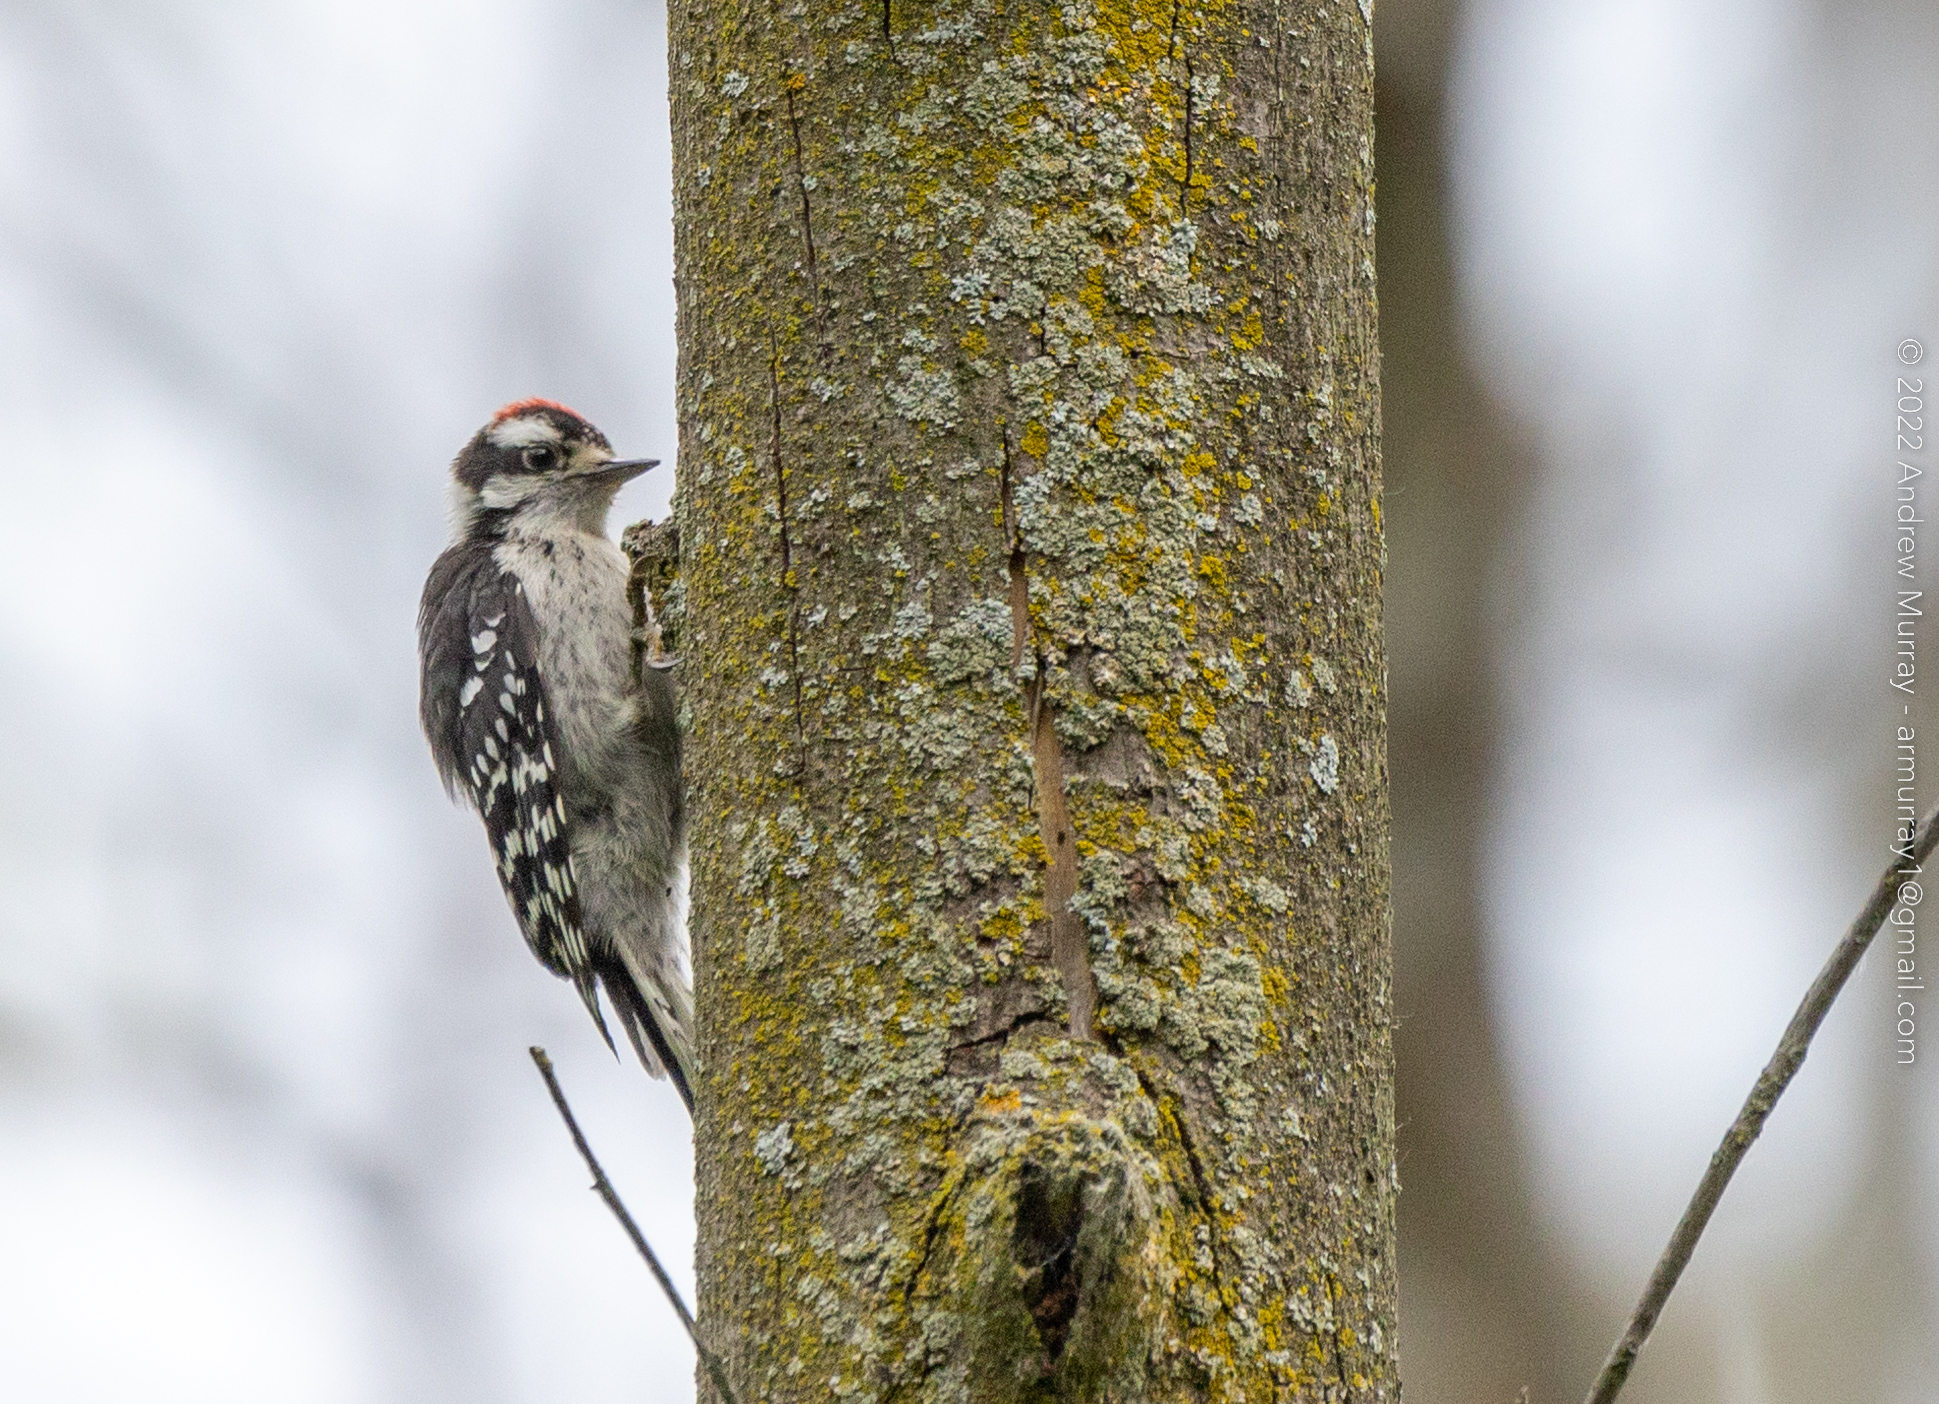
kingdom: Animalia
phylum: Chordata
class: Aves
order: Piciformes
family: Picidae
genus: Dryobates
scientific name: Dryobates pubescens
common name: Downy woodpecker
